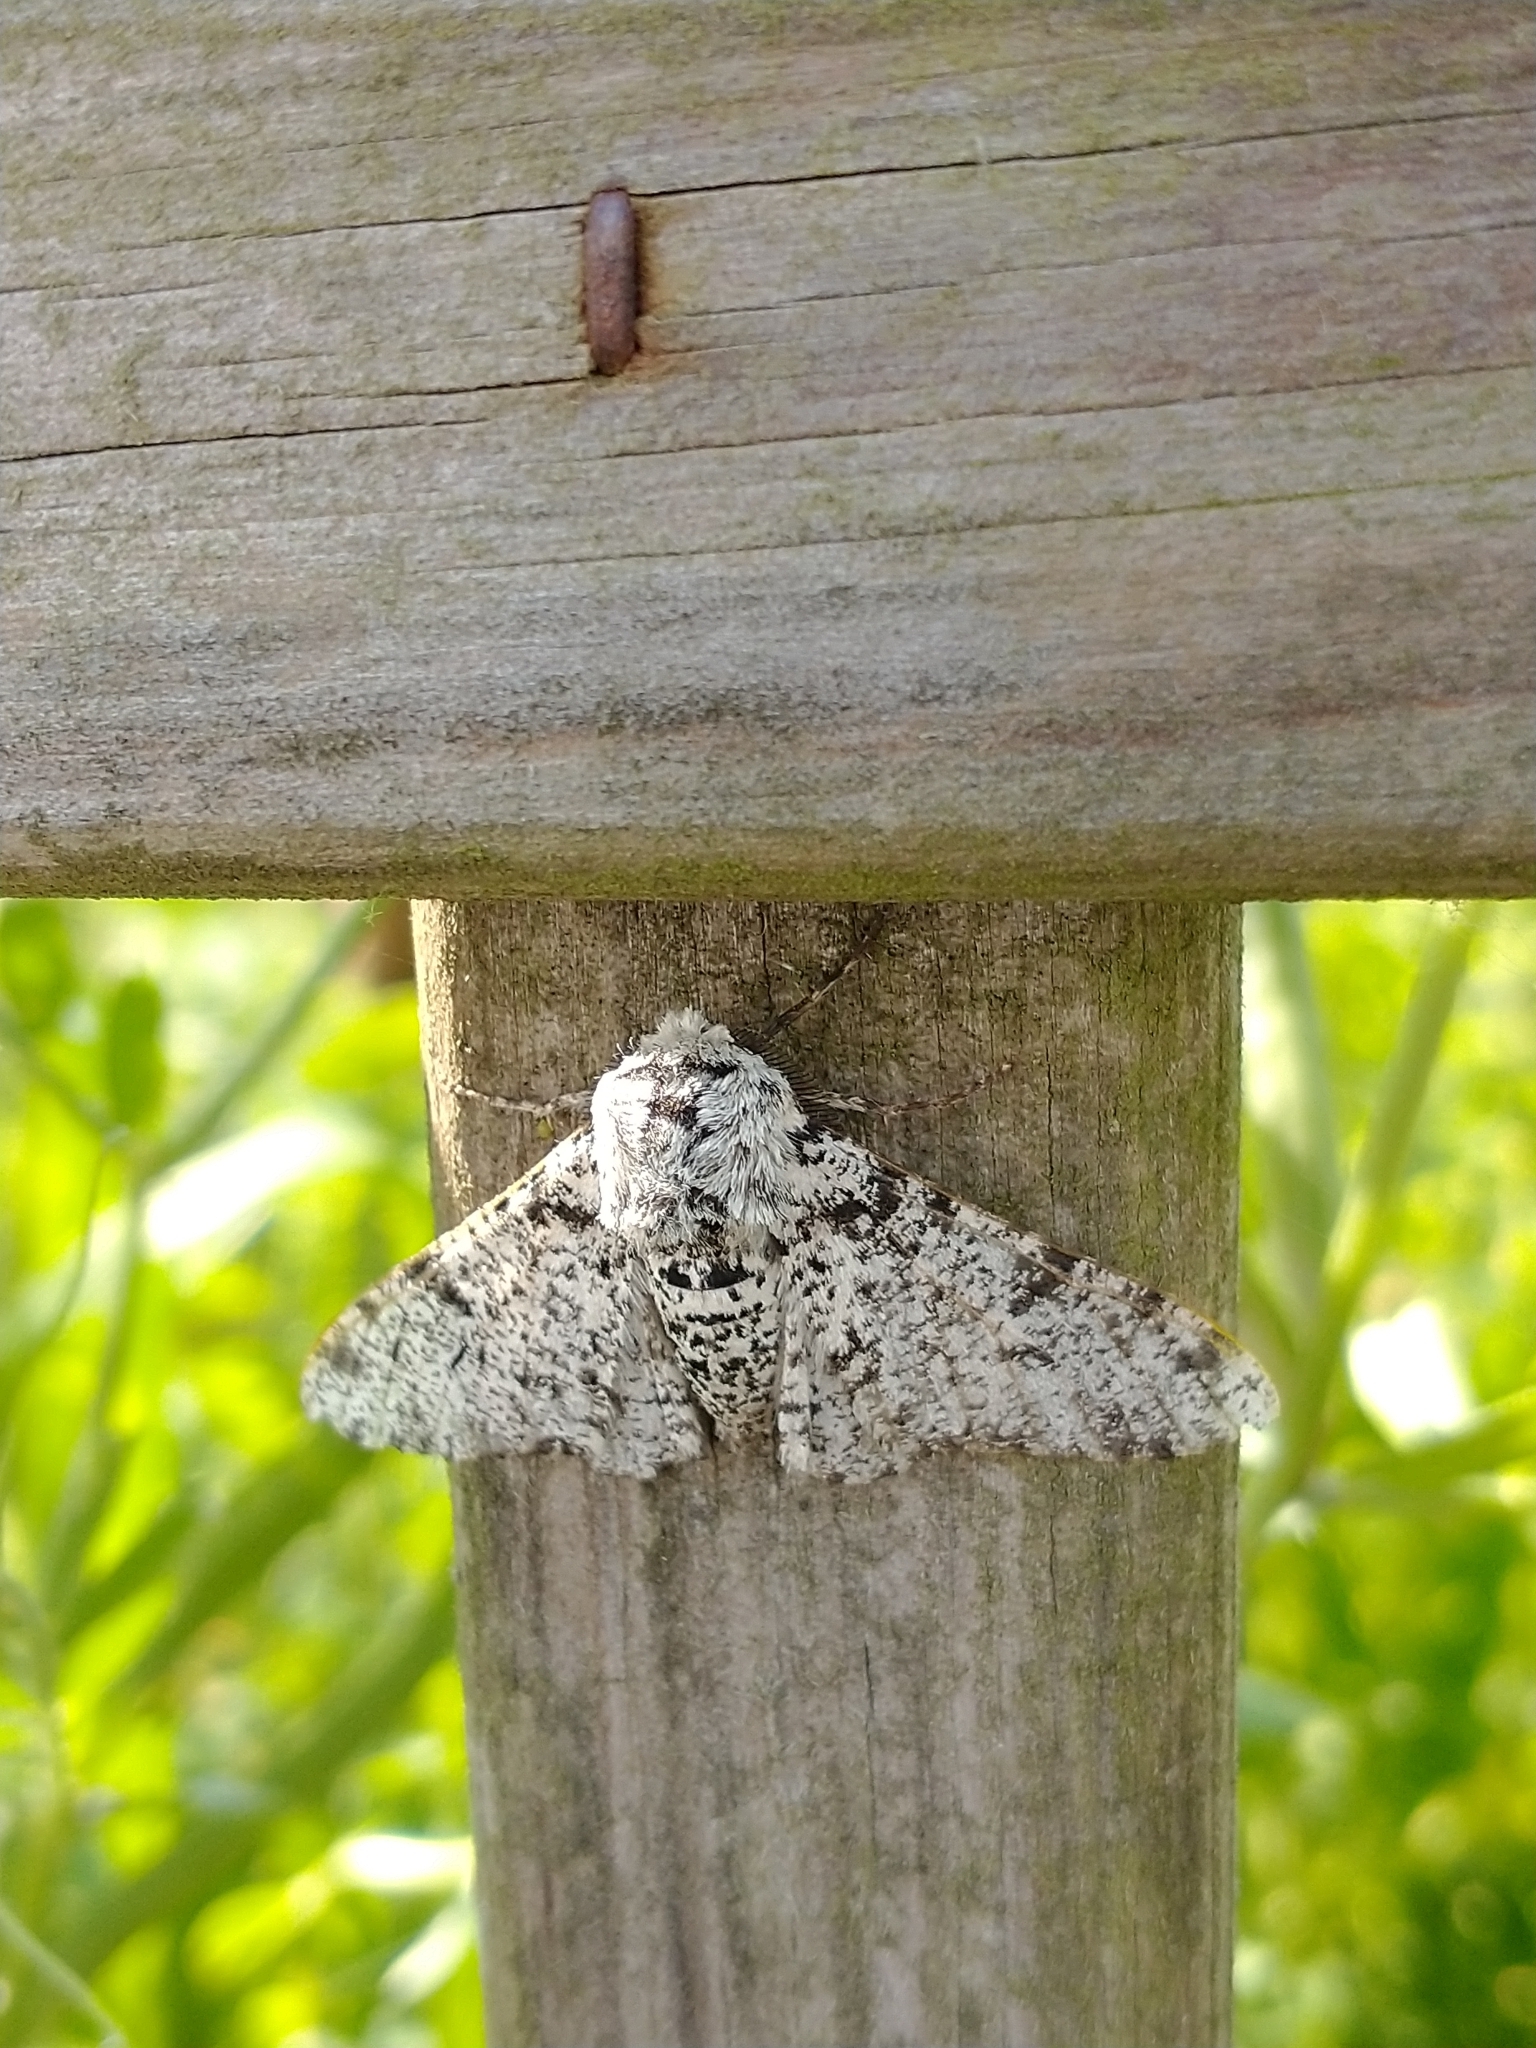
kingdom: Animalia
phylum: Arthropoda
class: Insecta
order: Lepidoptera
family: Geometridae
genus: Biston
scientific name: Biston betularia
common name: Peppered moth
